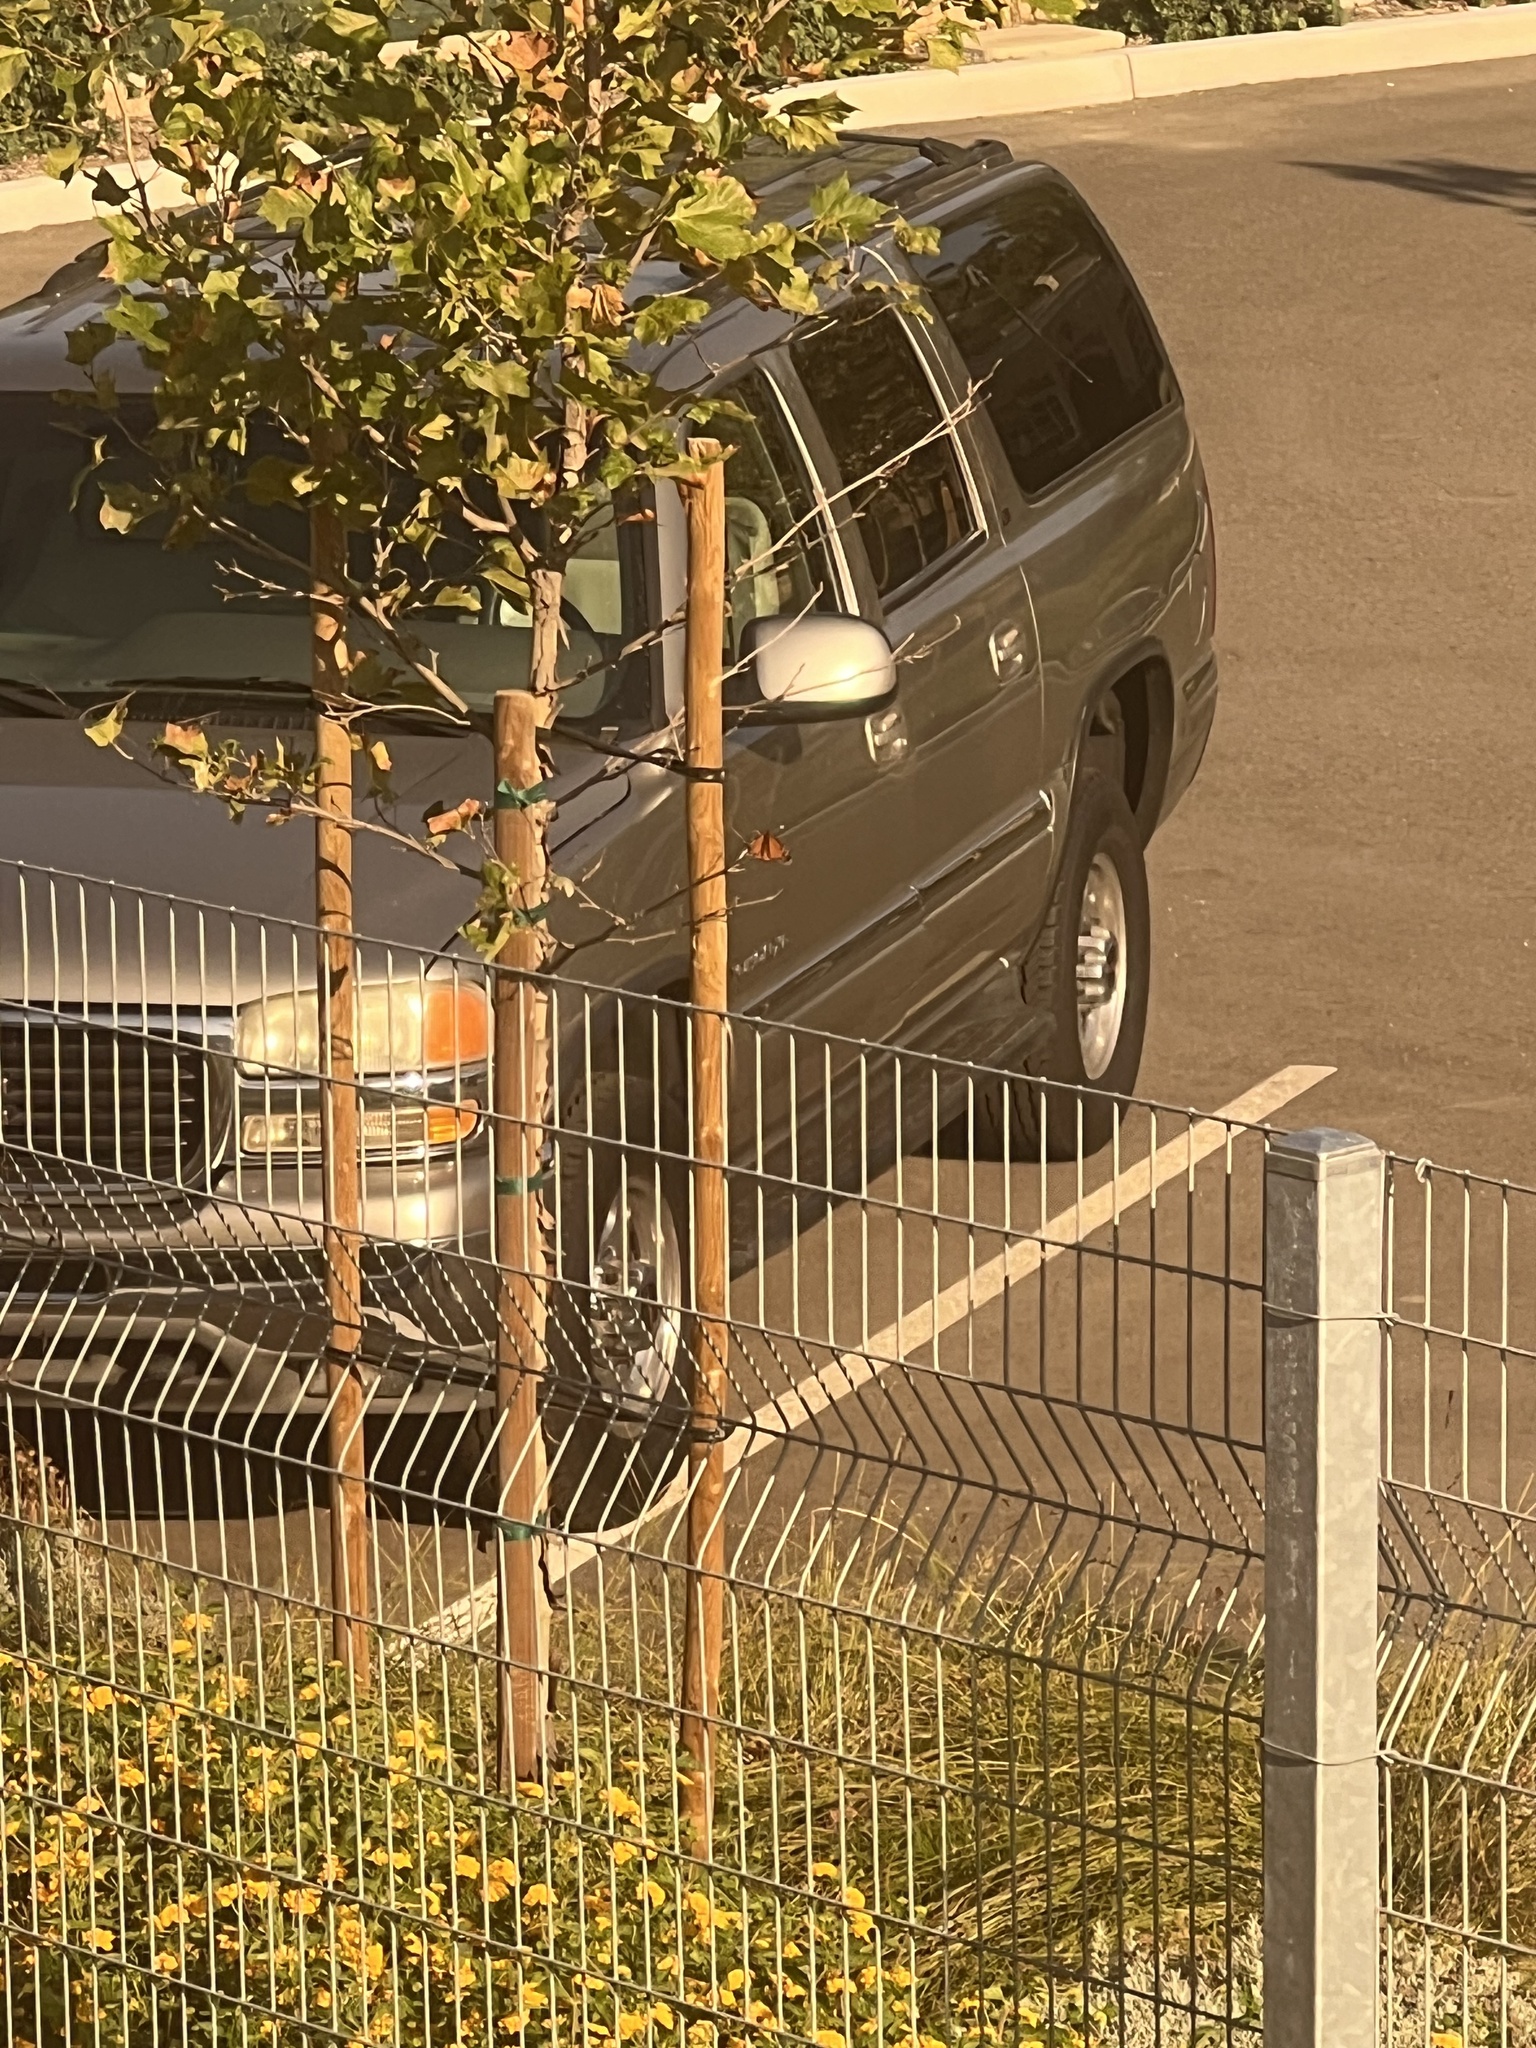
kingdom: Animalia
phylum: Arthropoda
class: Insecta
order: Lepidoptera
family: Nymphalidae
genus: Danaus
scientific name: Danaus plexippus
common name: Monarch
